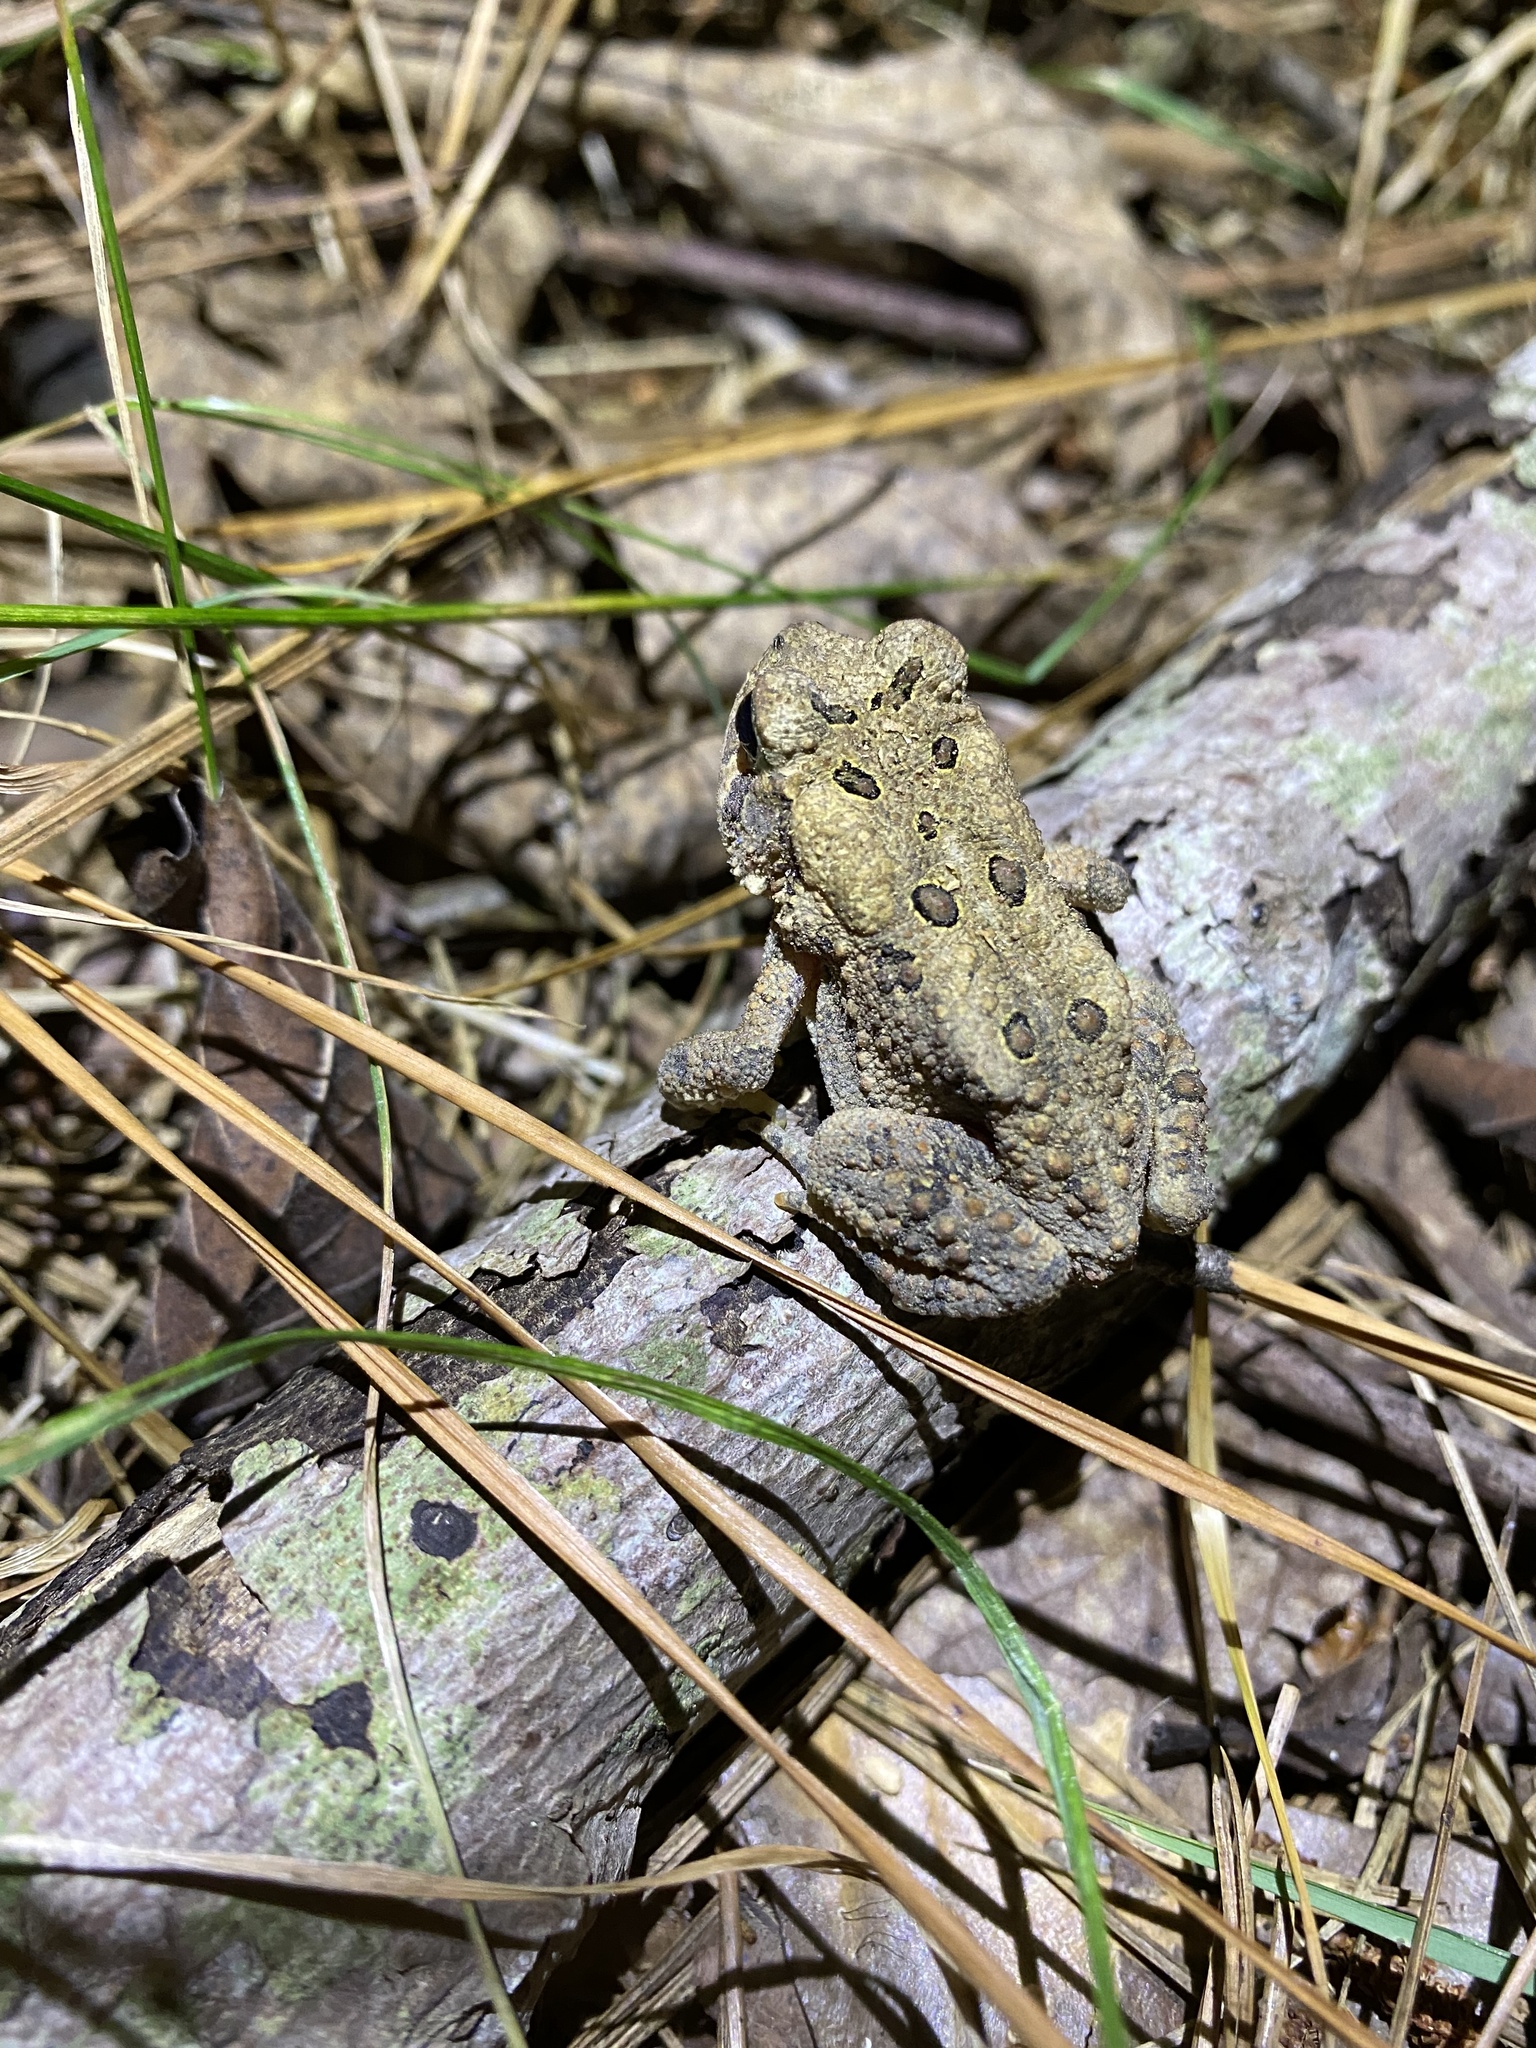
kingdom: Animalia
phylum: Chordata
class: Amphibia
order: Anura
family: Bufonidae
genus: Anaxyrus
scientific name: Anaxyrus americanus
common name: American toad
